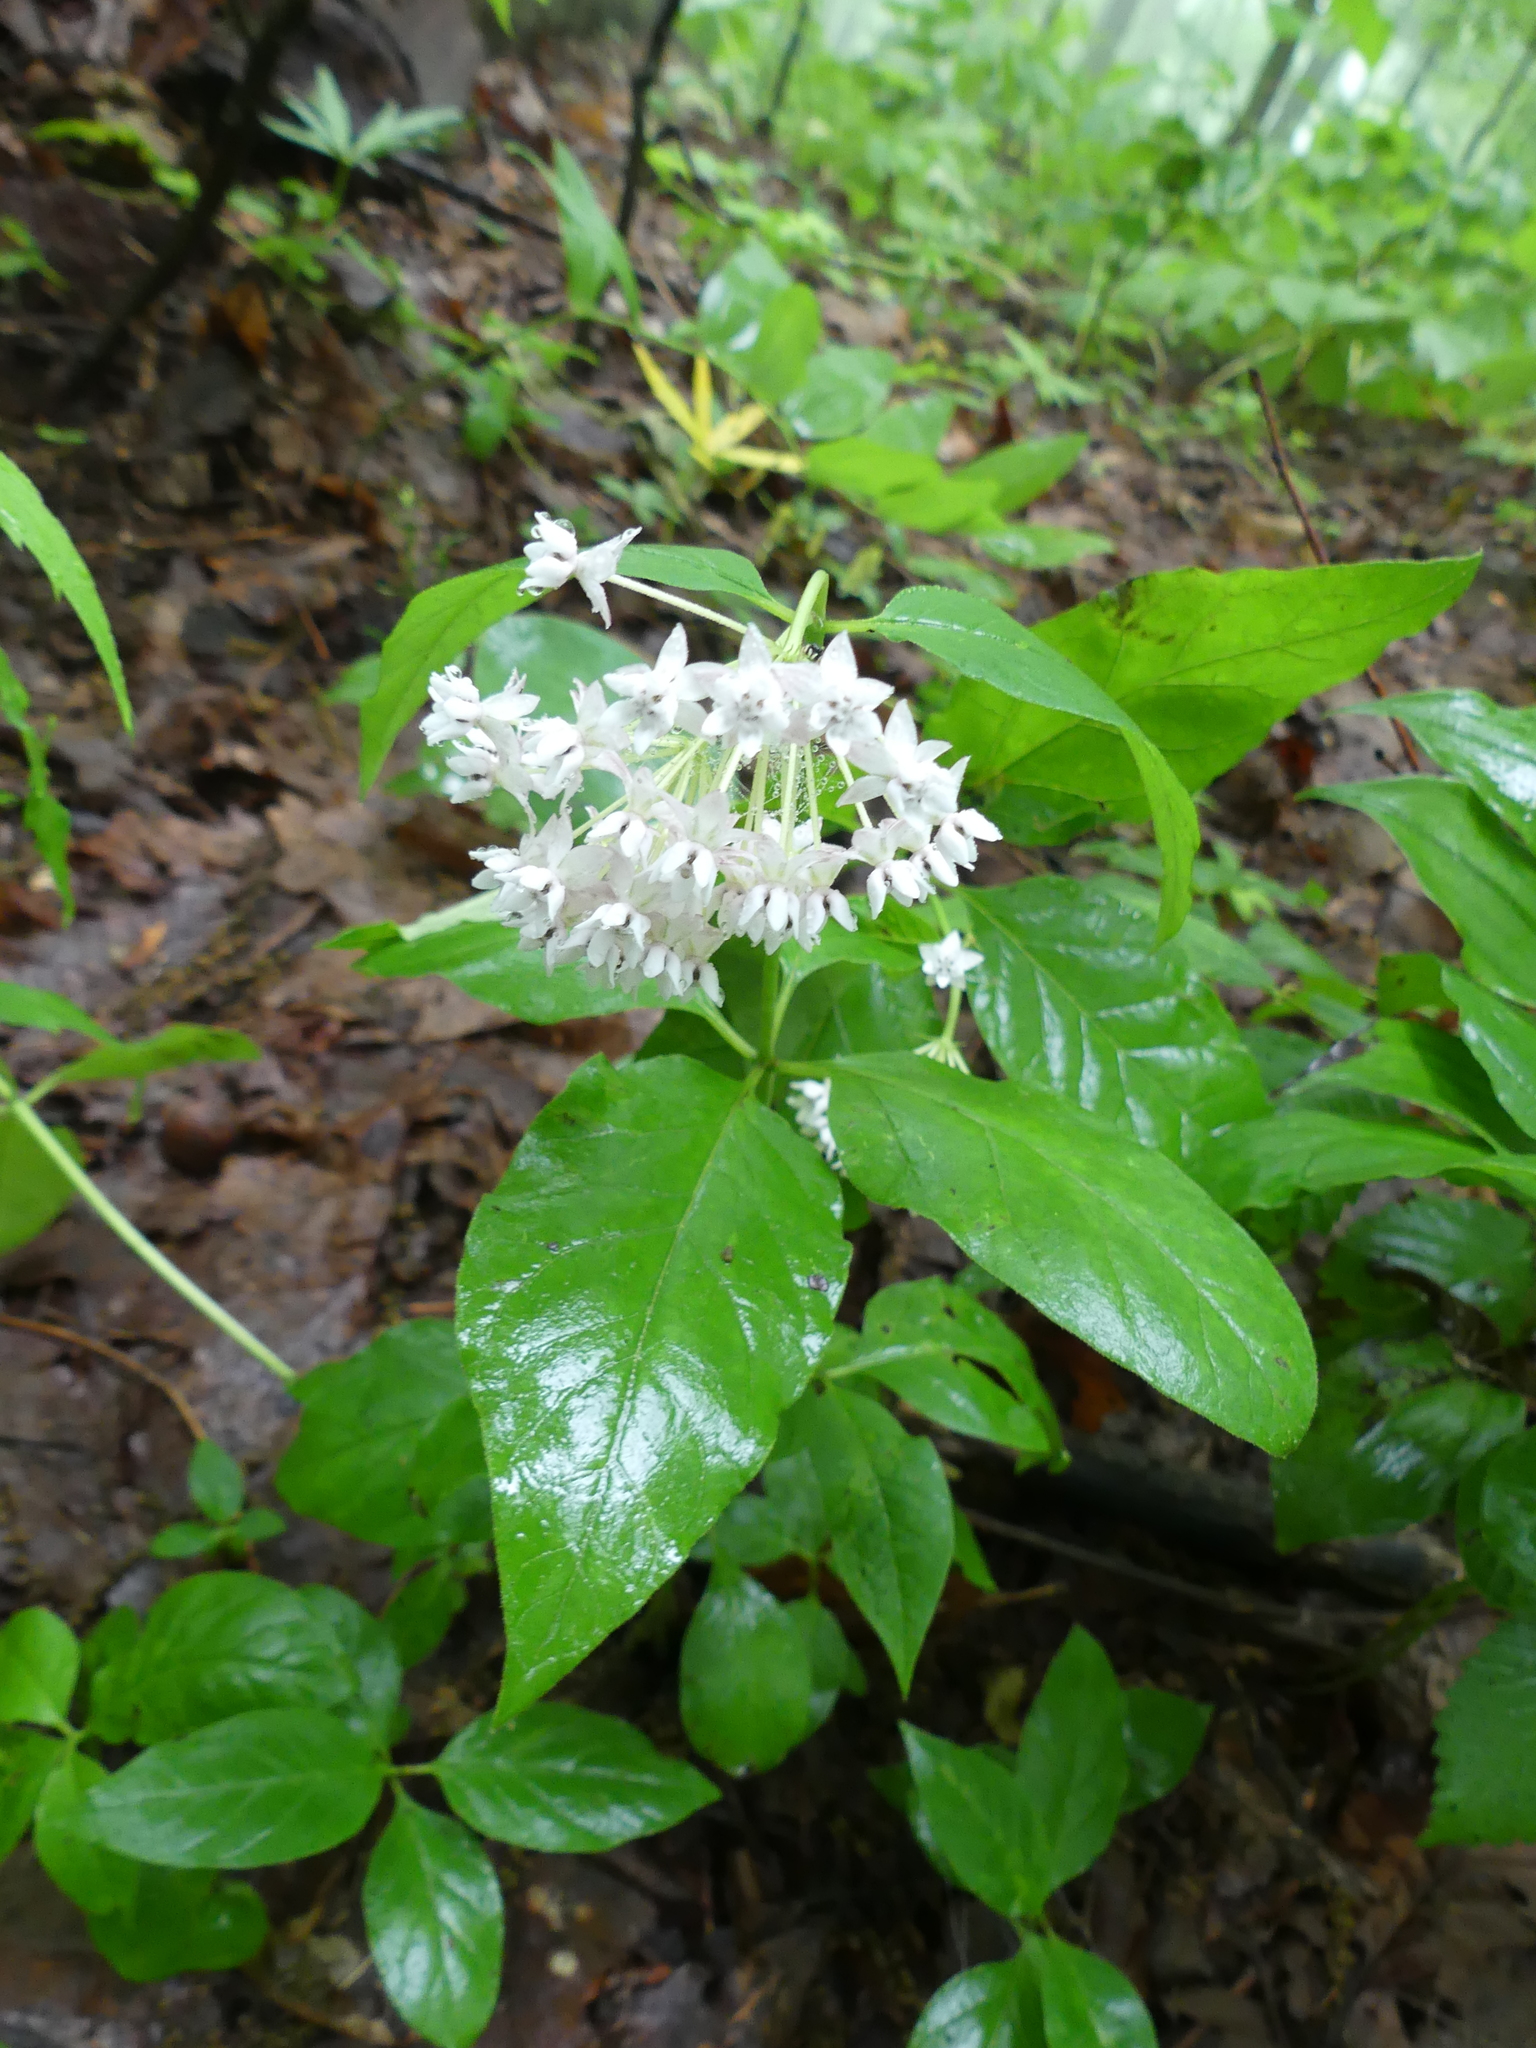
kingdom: Plantae
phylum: Tracheophyta
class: Magnoliopsida
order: Gentianales
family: Apocynaceae
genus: Asclepias
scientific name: Asclepias quadrifolia
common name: Whorled milkweed
